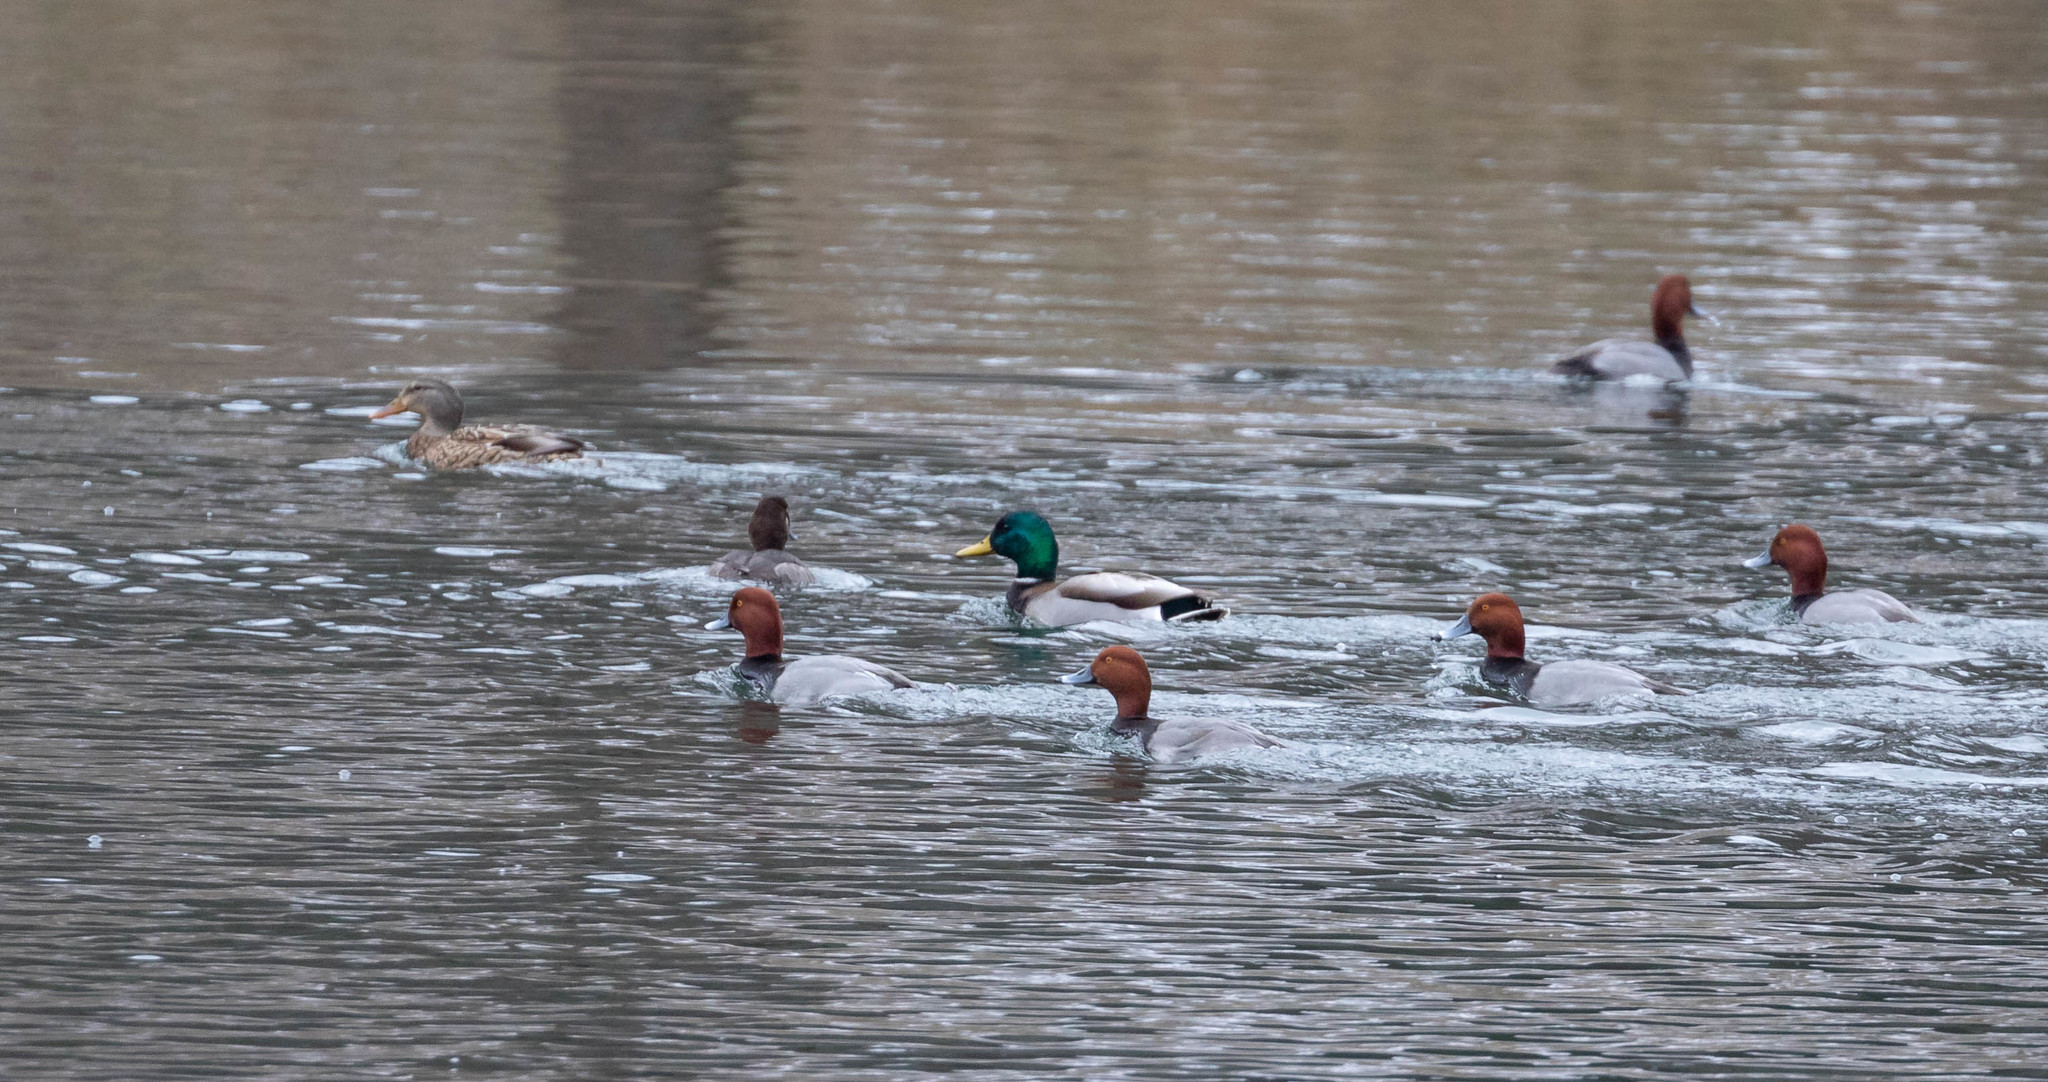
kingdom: Animalia
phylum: Chordata
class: Aves
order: Anseriformes
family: Anatidae
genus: Aythya
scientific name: Aythya americana
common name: Redhead
